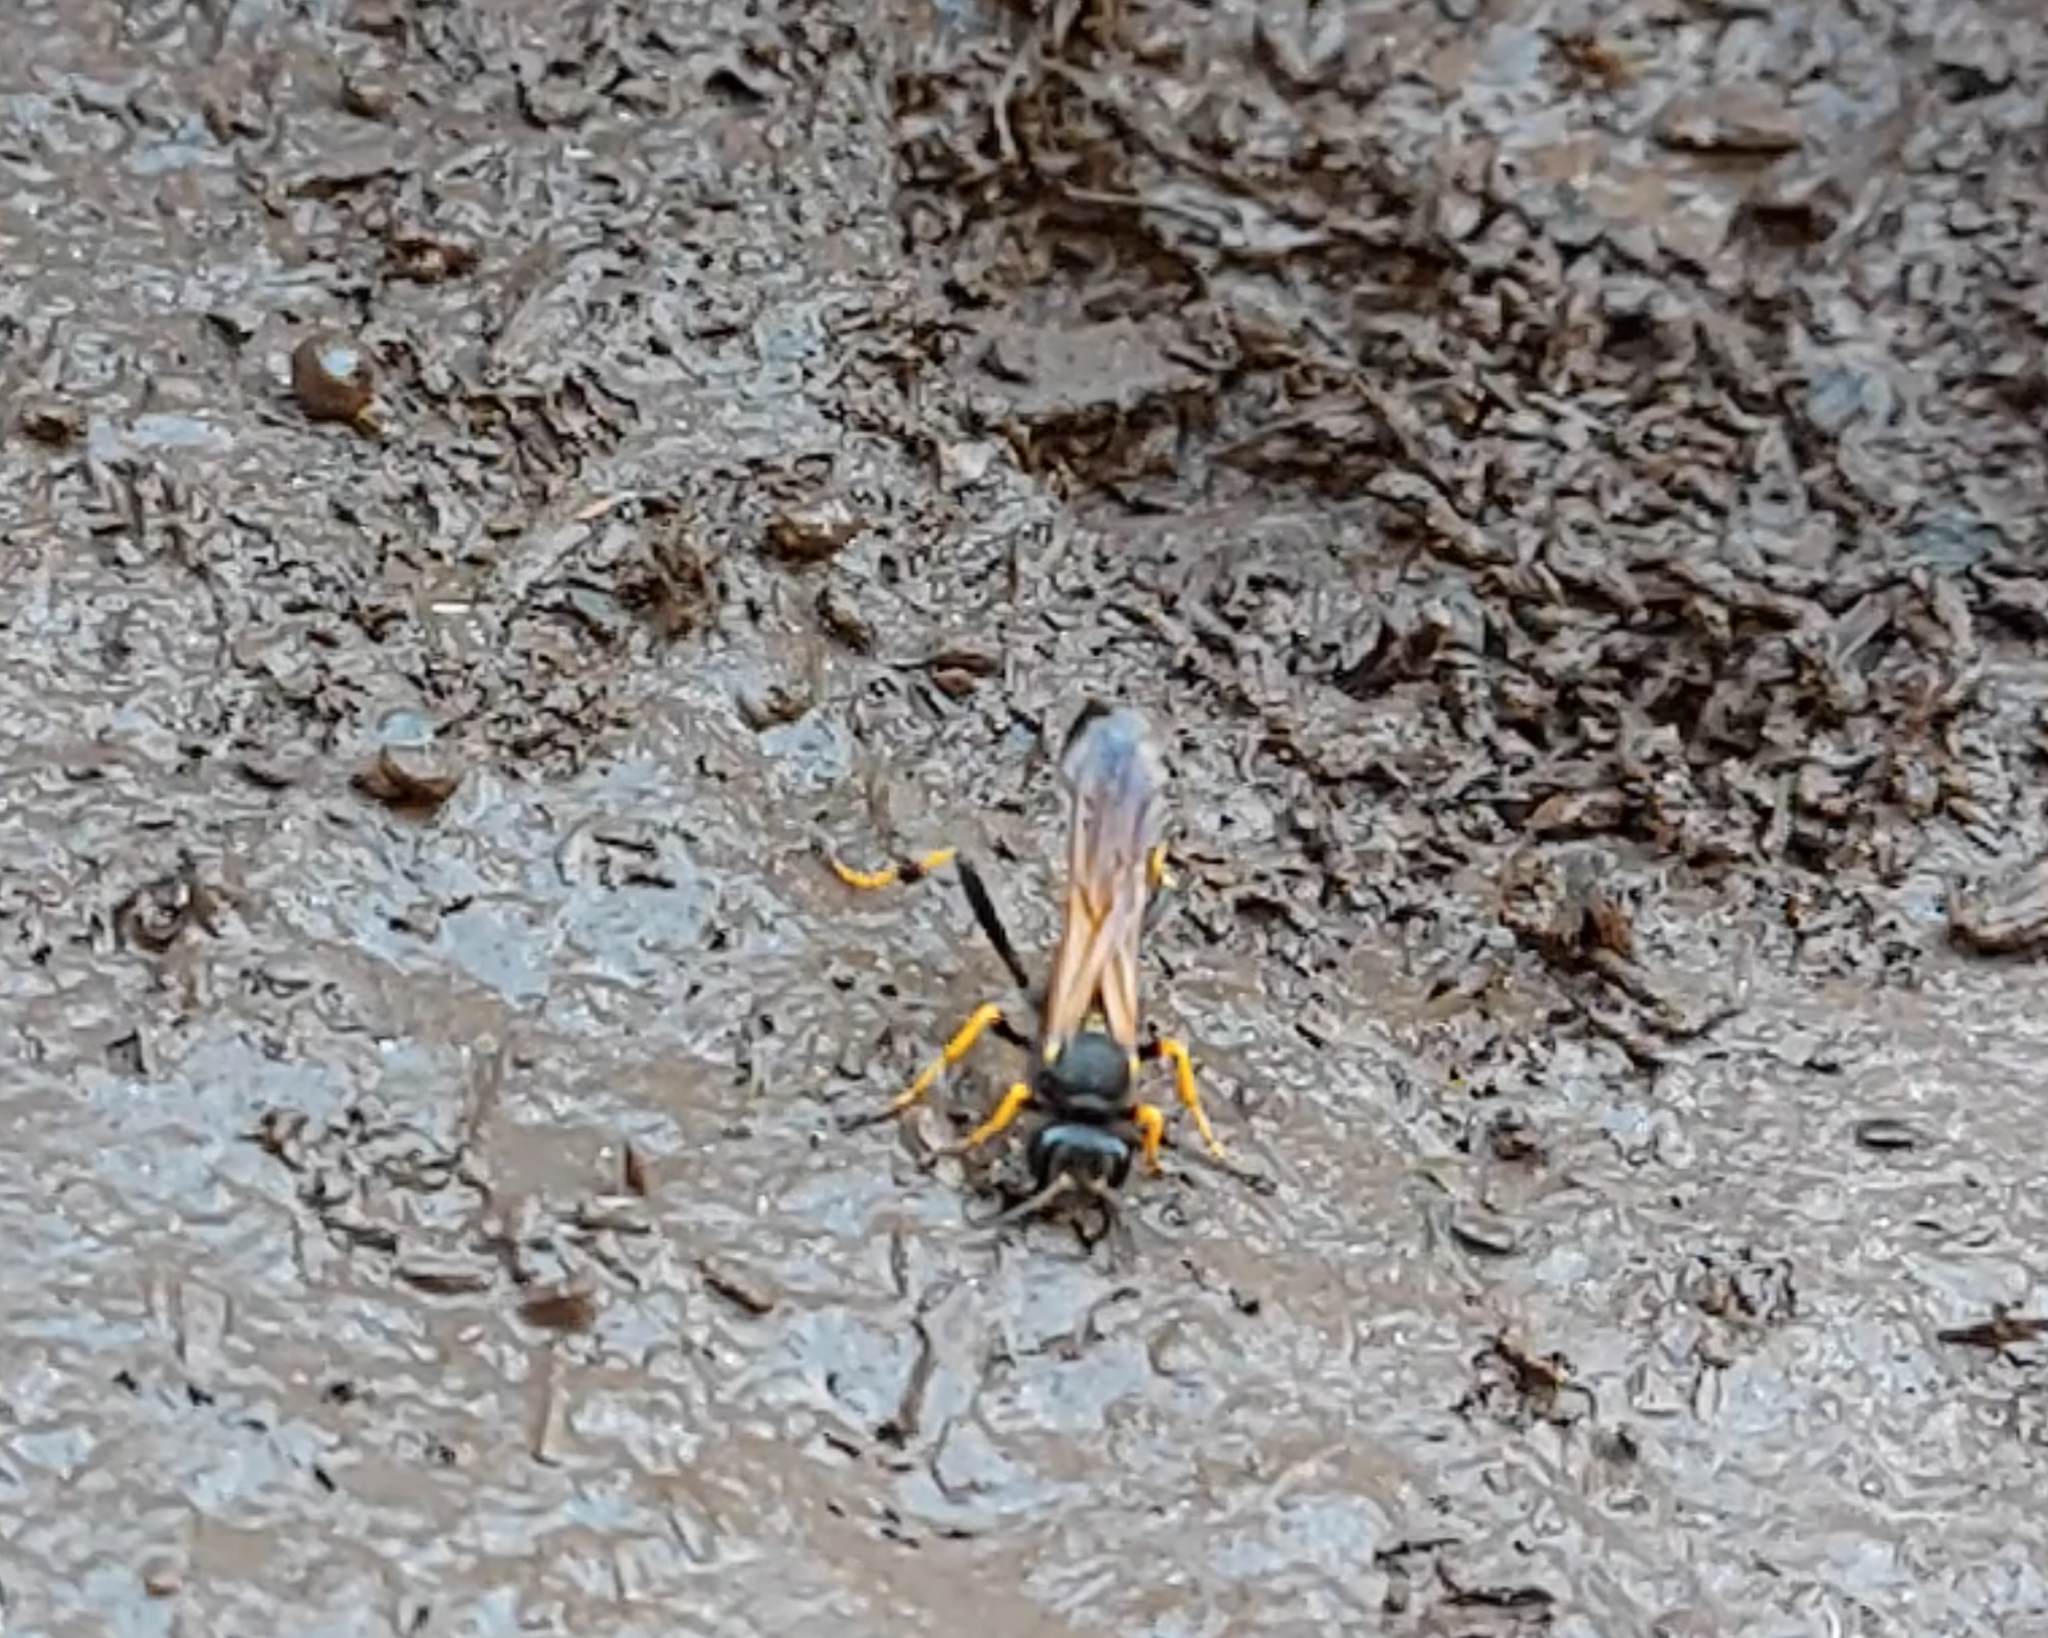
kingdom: Animalia
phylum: Arthropoda
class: Insecta
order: Hymenoptera
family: Sphecidae
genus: Sceliphron
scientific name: Sceliphron caementarium
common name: Mud dauber
